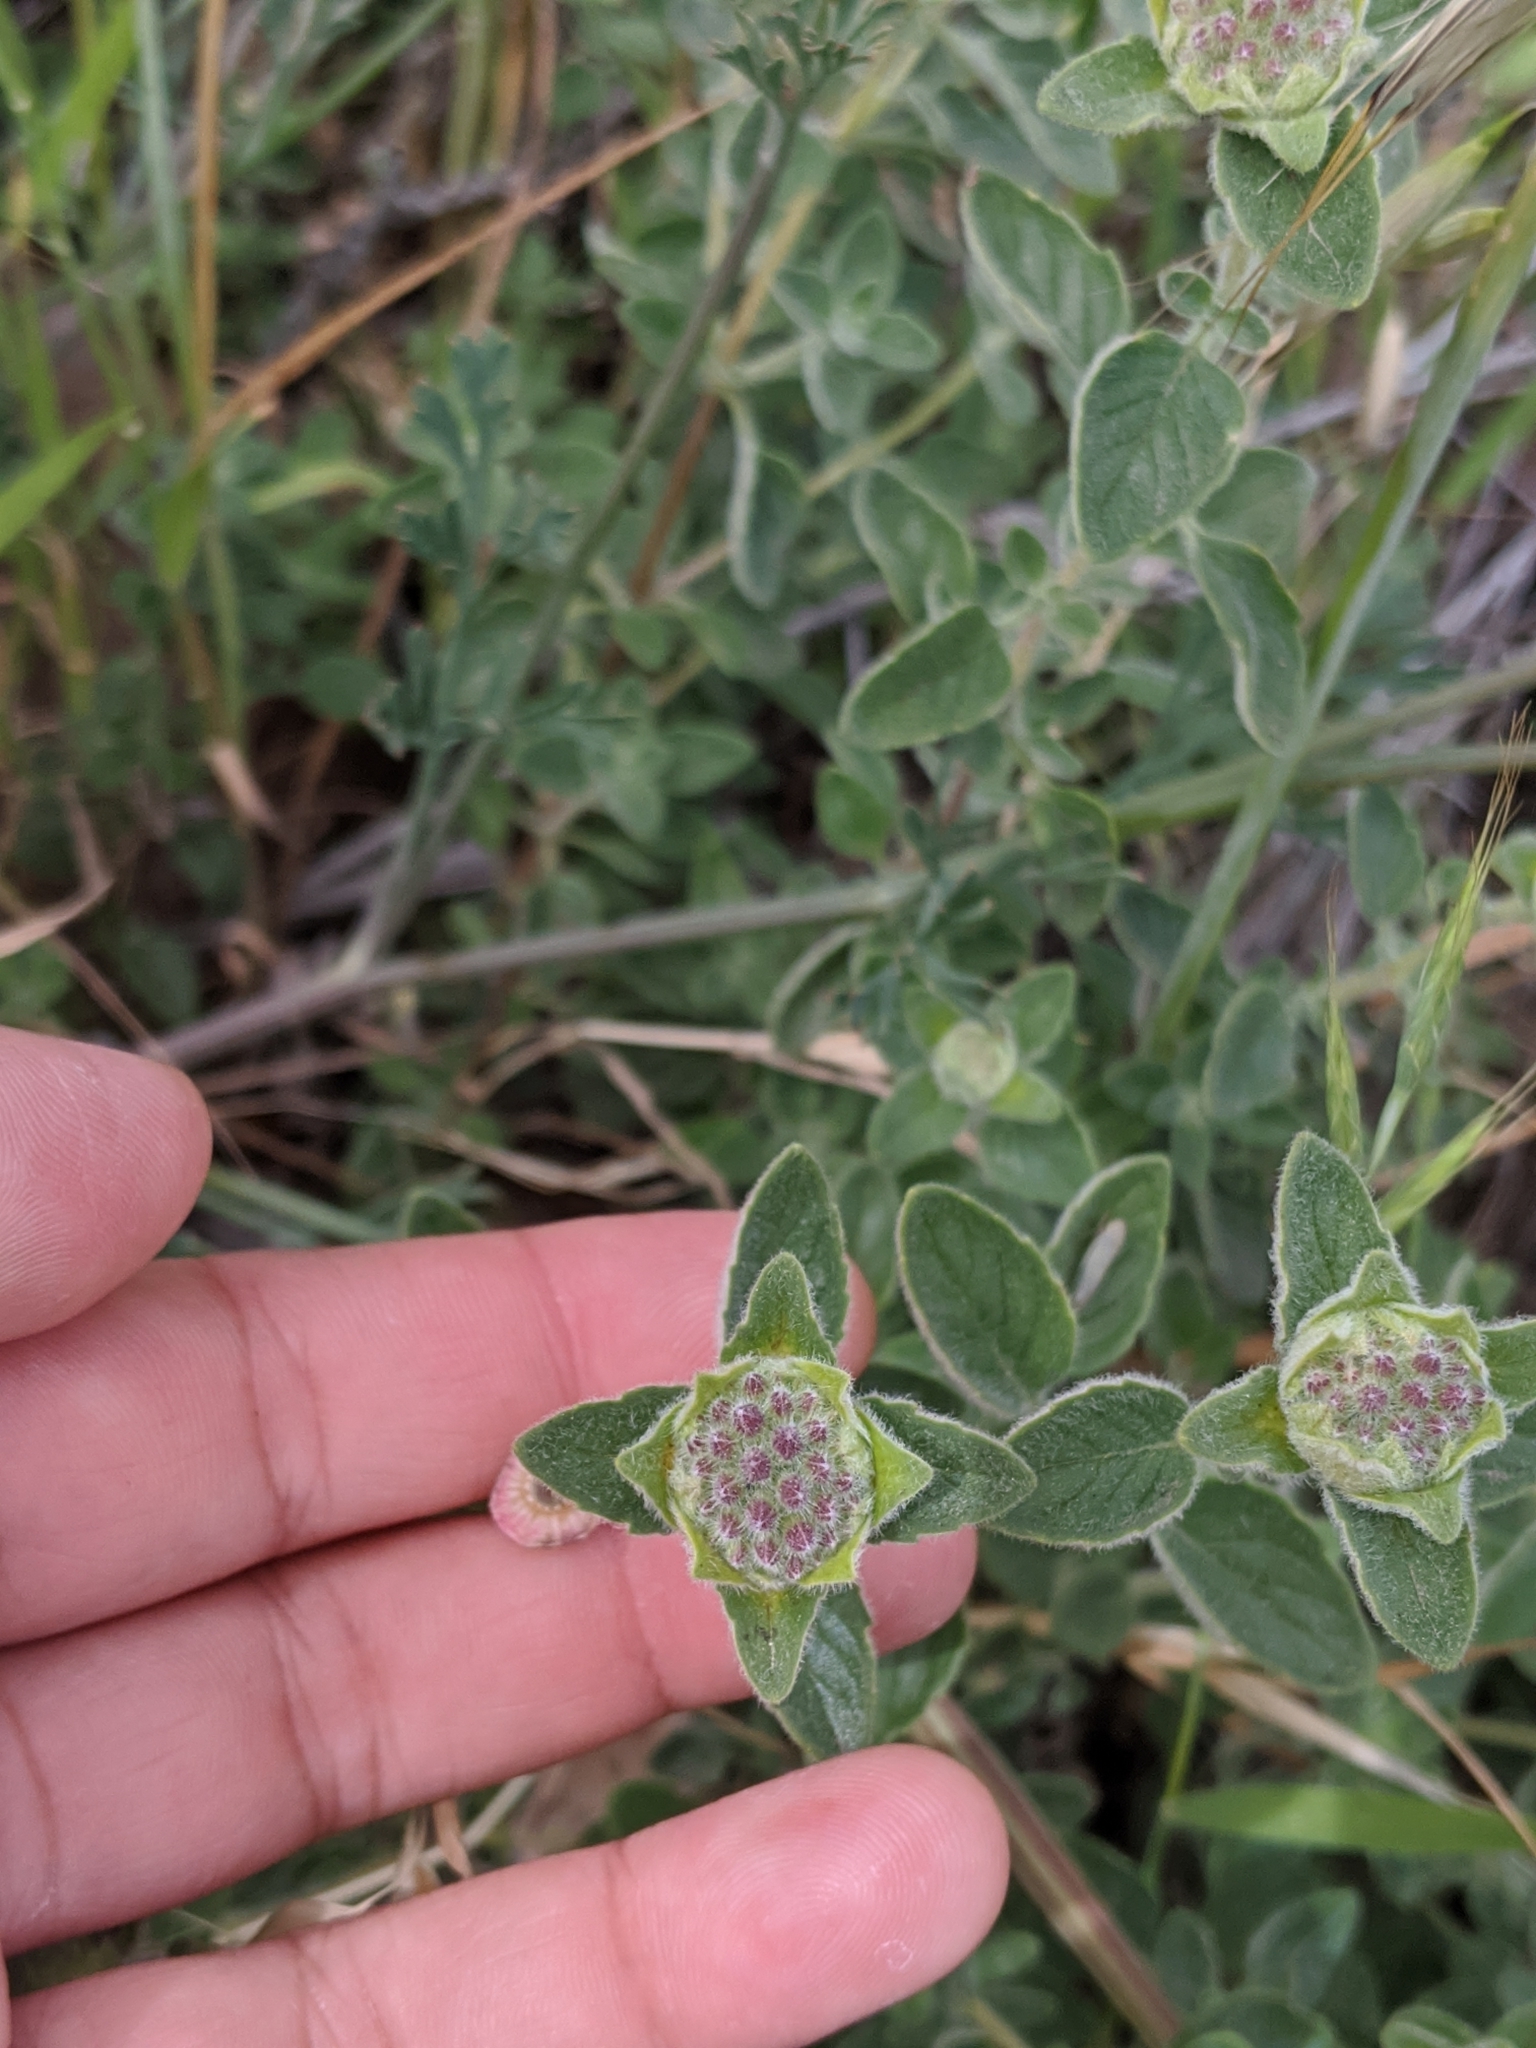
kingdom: Plantae
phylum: Tracheophyta
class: Magnoliopsida
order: Lamiales
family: Lamiaceae
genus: Monardella
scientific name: Monardella odoratissima
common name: Pacific monardella
